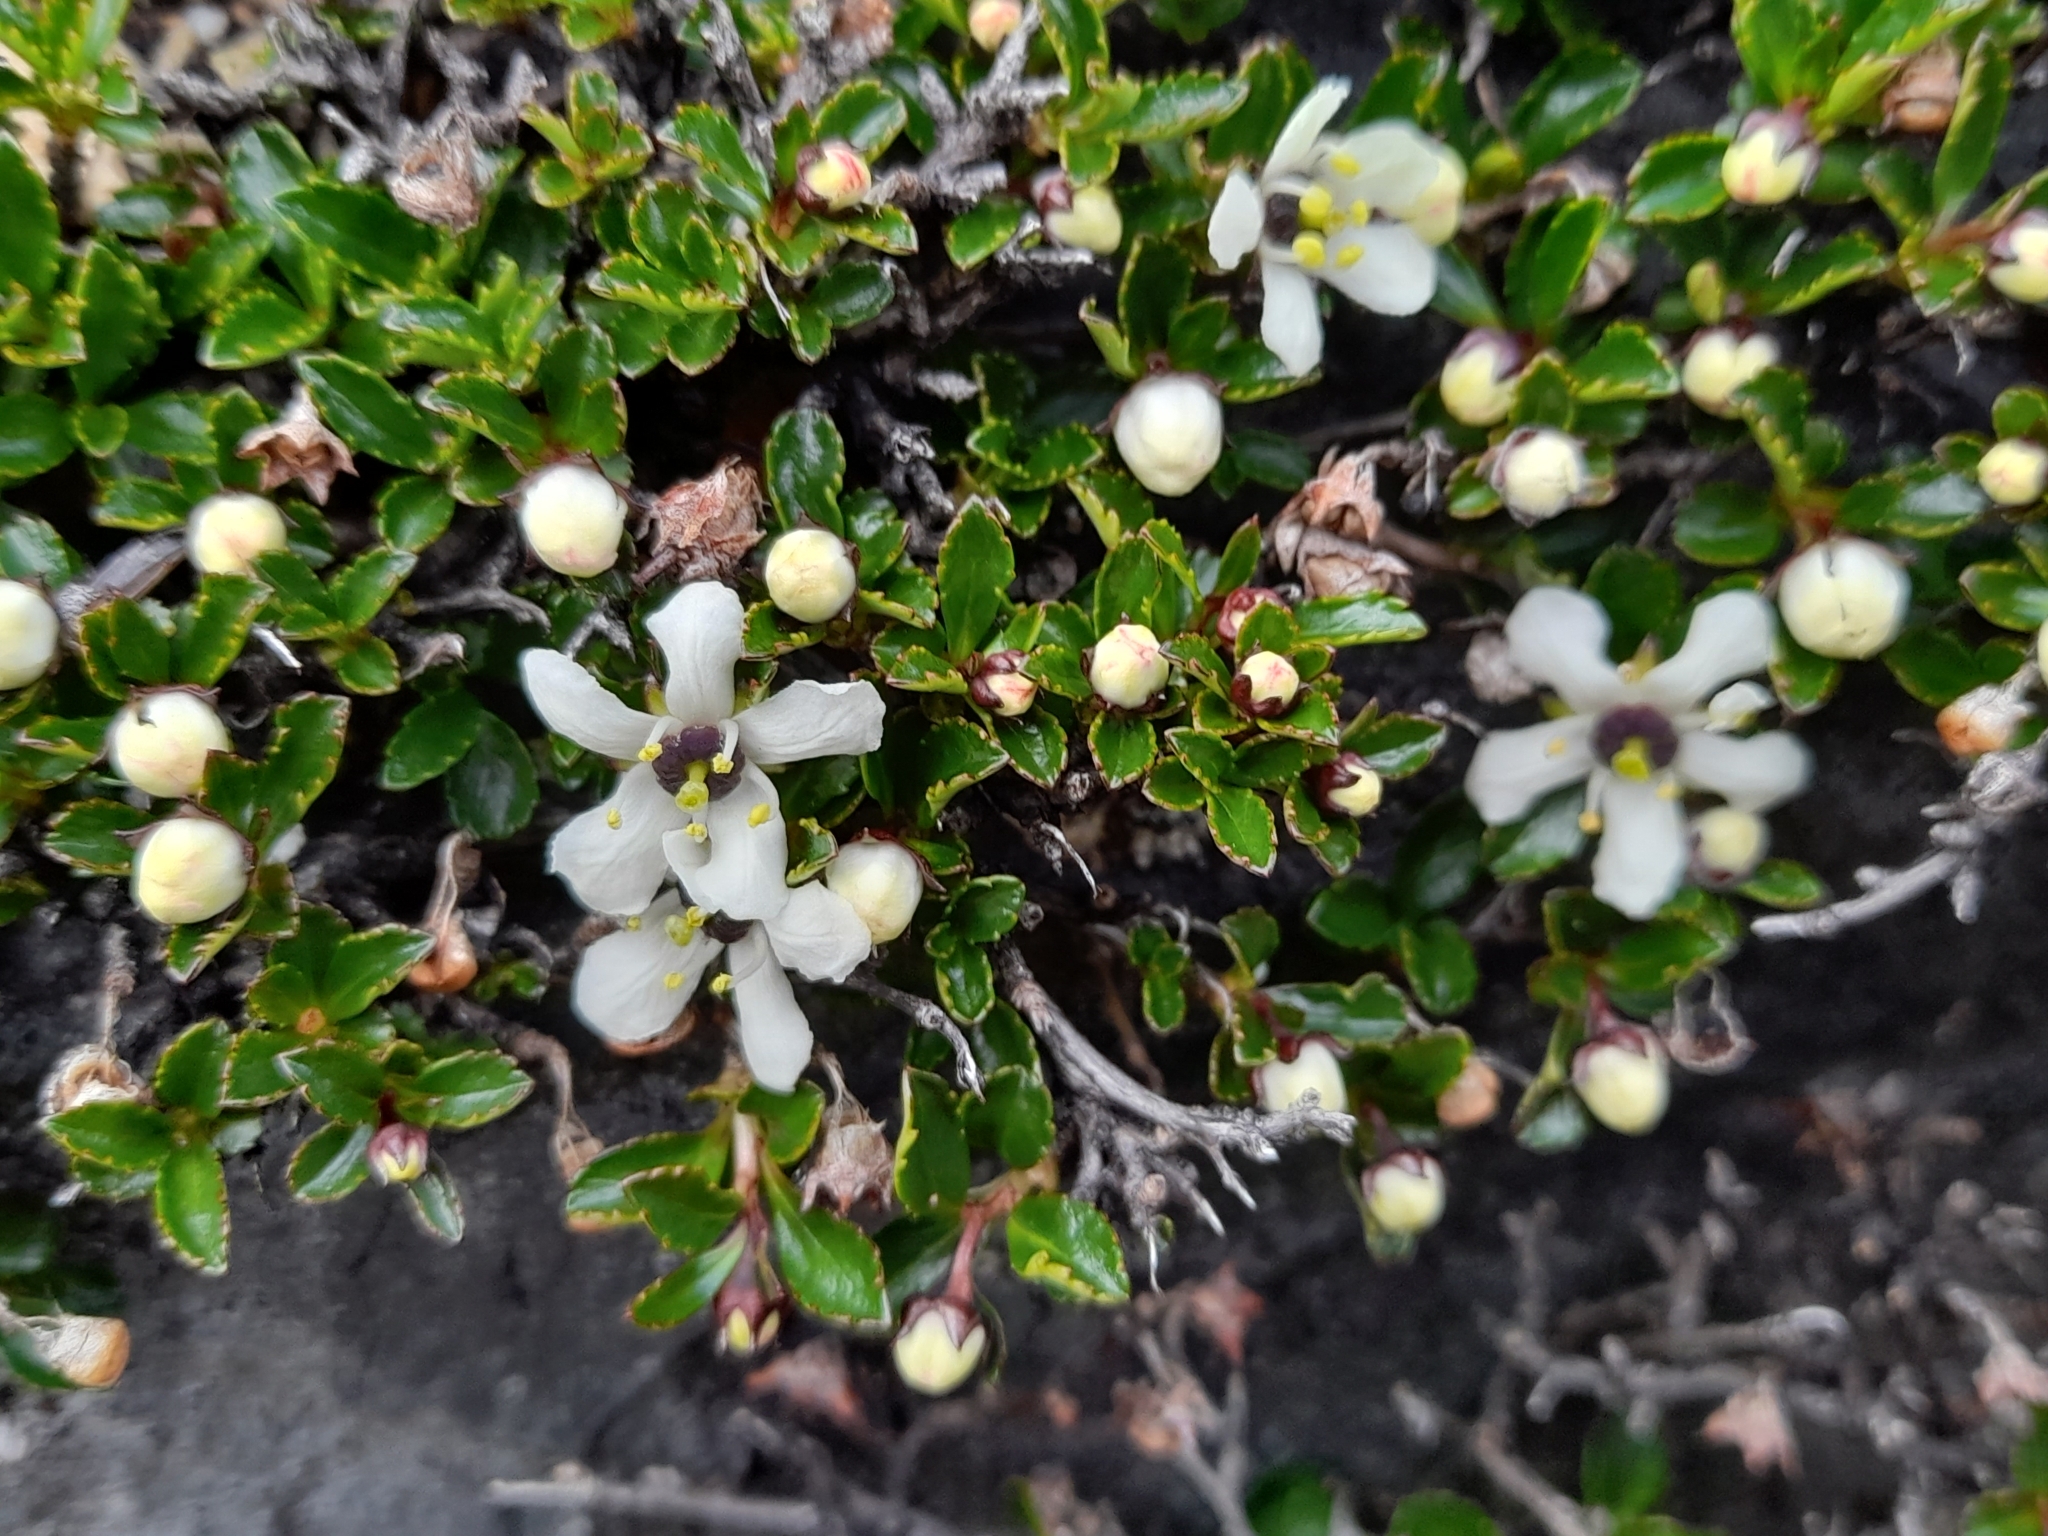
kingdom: Plantae
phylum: Tracheophyta
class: Magnoliopsida
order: Escalloniales
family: Escalloniaceae
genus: Escallonia
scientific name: Escallonia serrata
